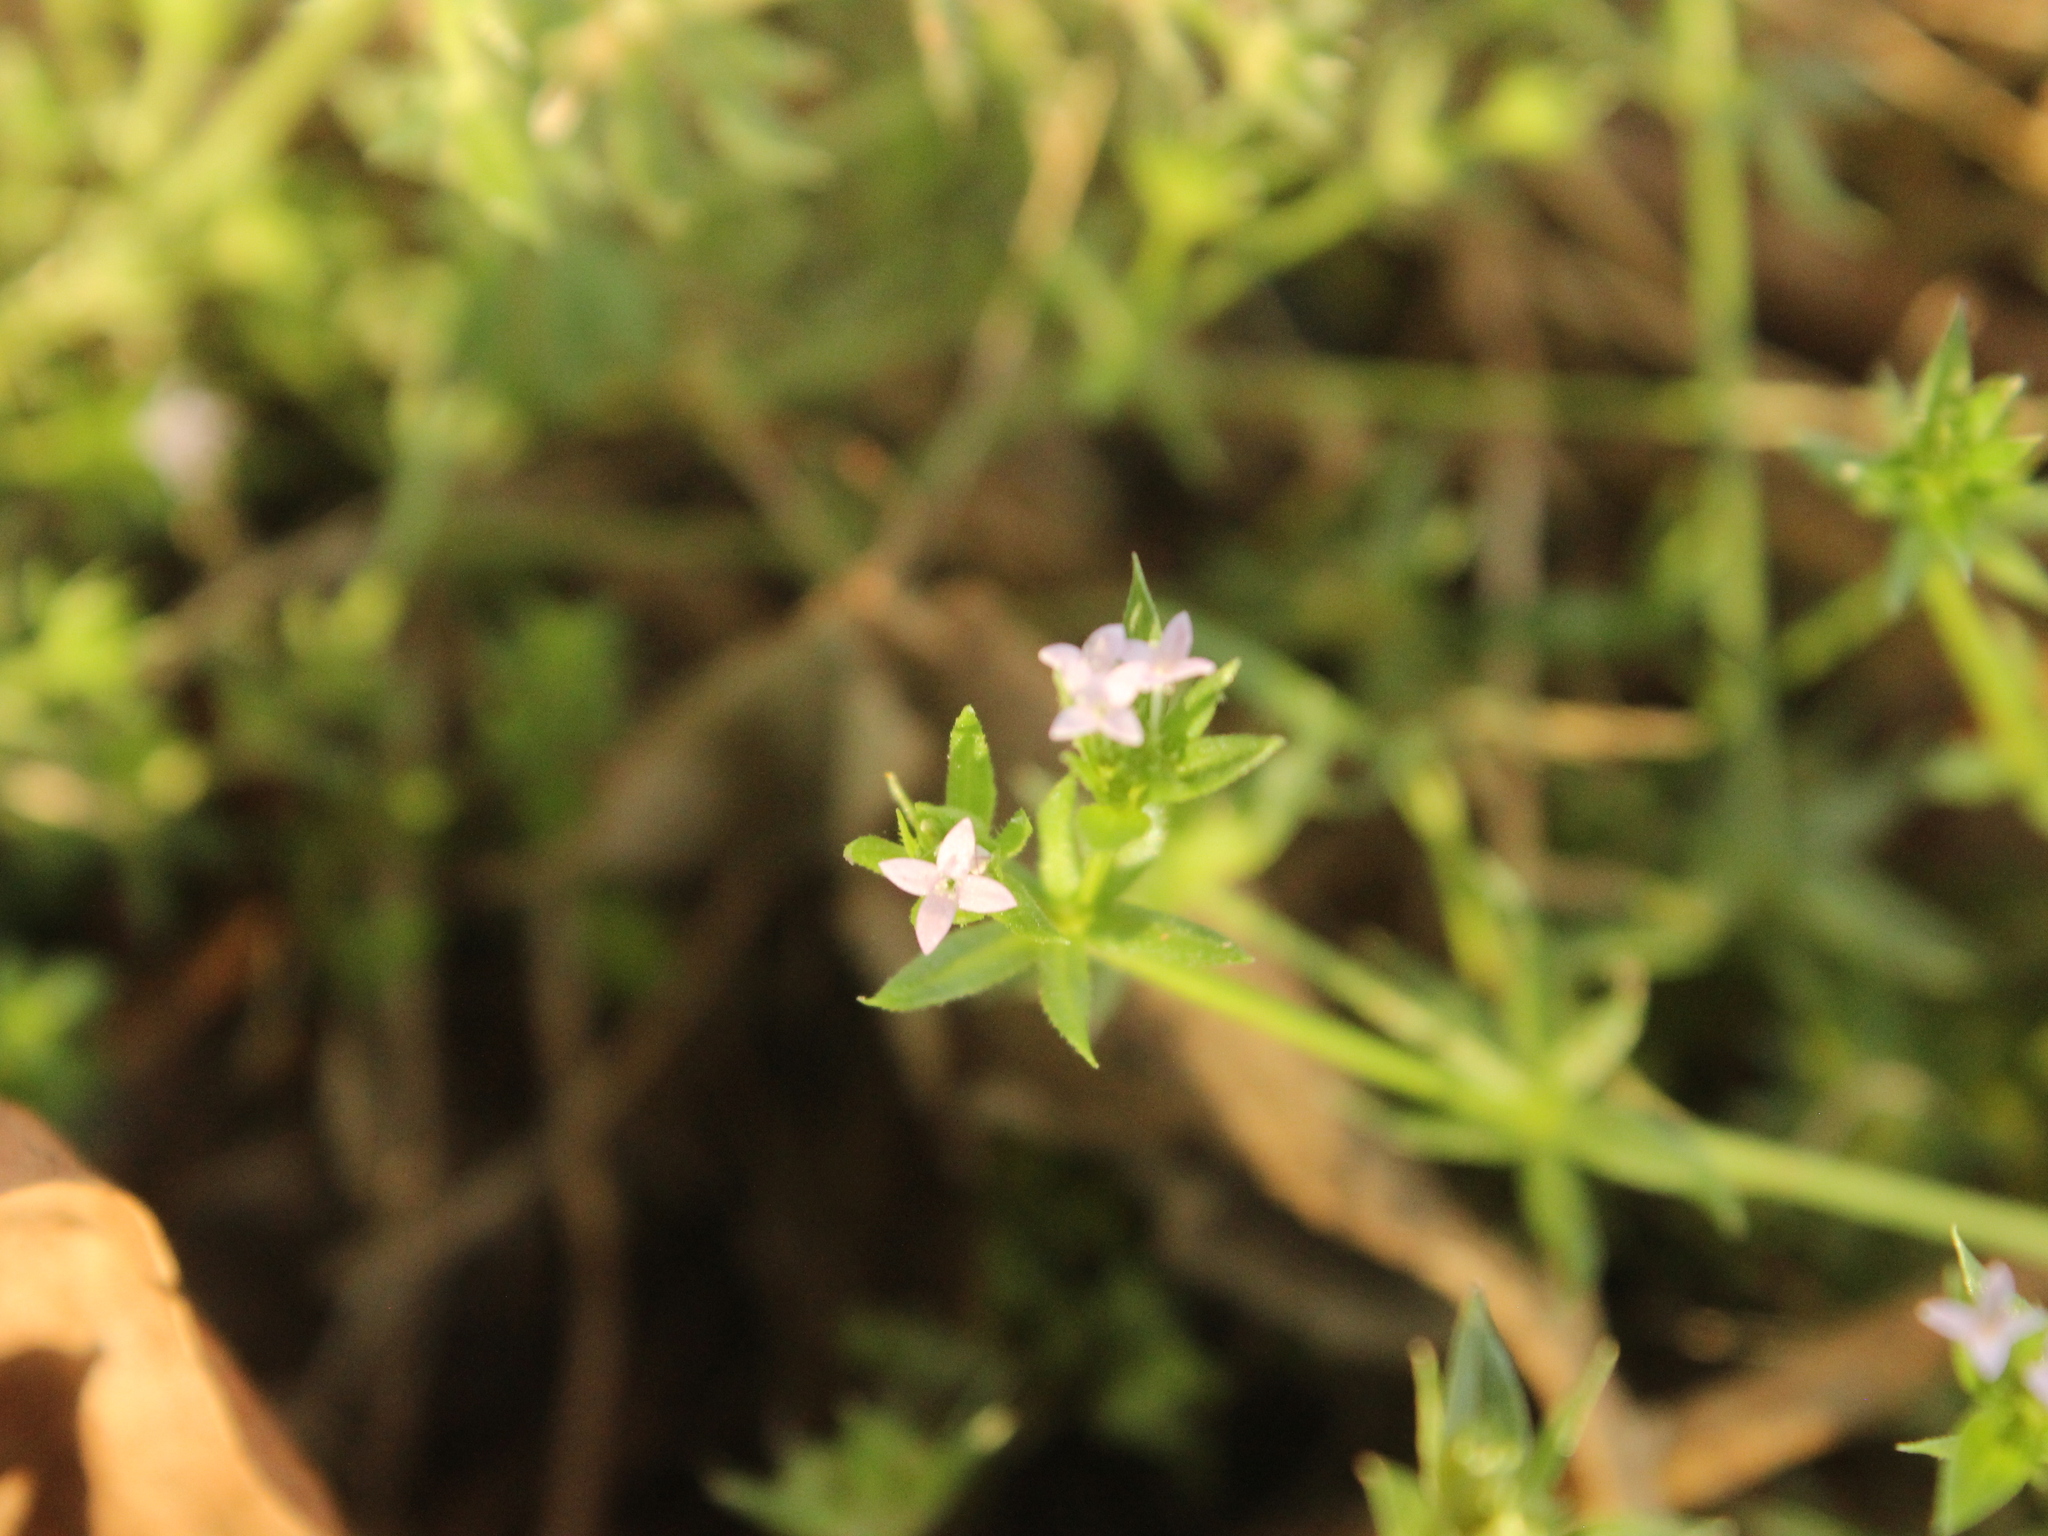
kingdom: Plantae
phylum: Tracheophyta
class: Magnoliopsida
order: Gentianales
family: Rubiaceae
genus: Sherardia
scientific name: Sherardia arvensis
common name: Field madder
